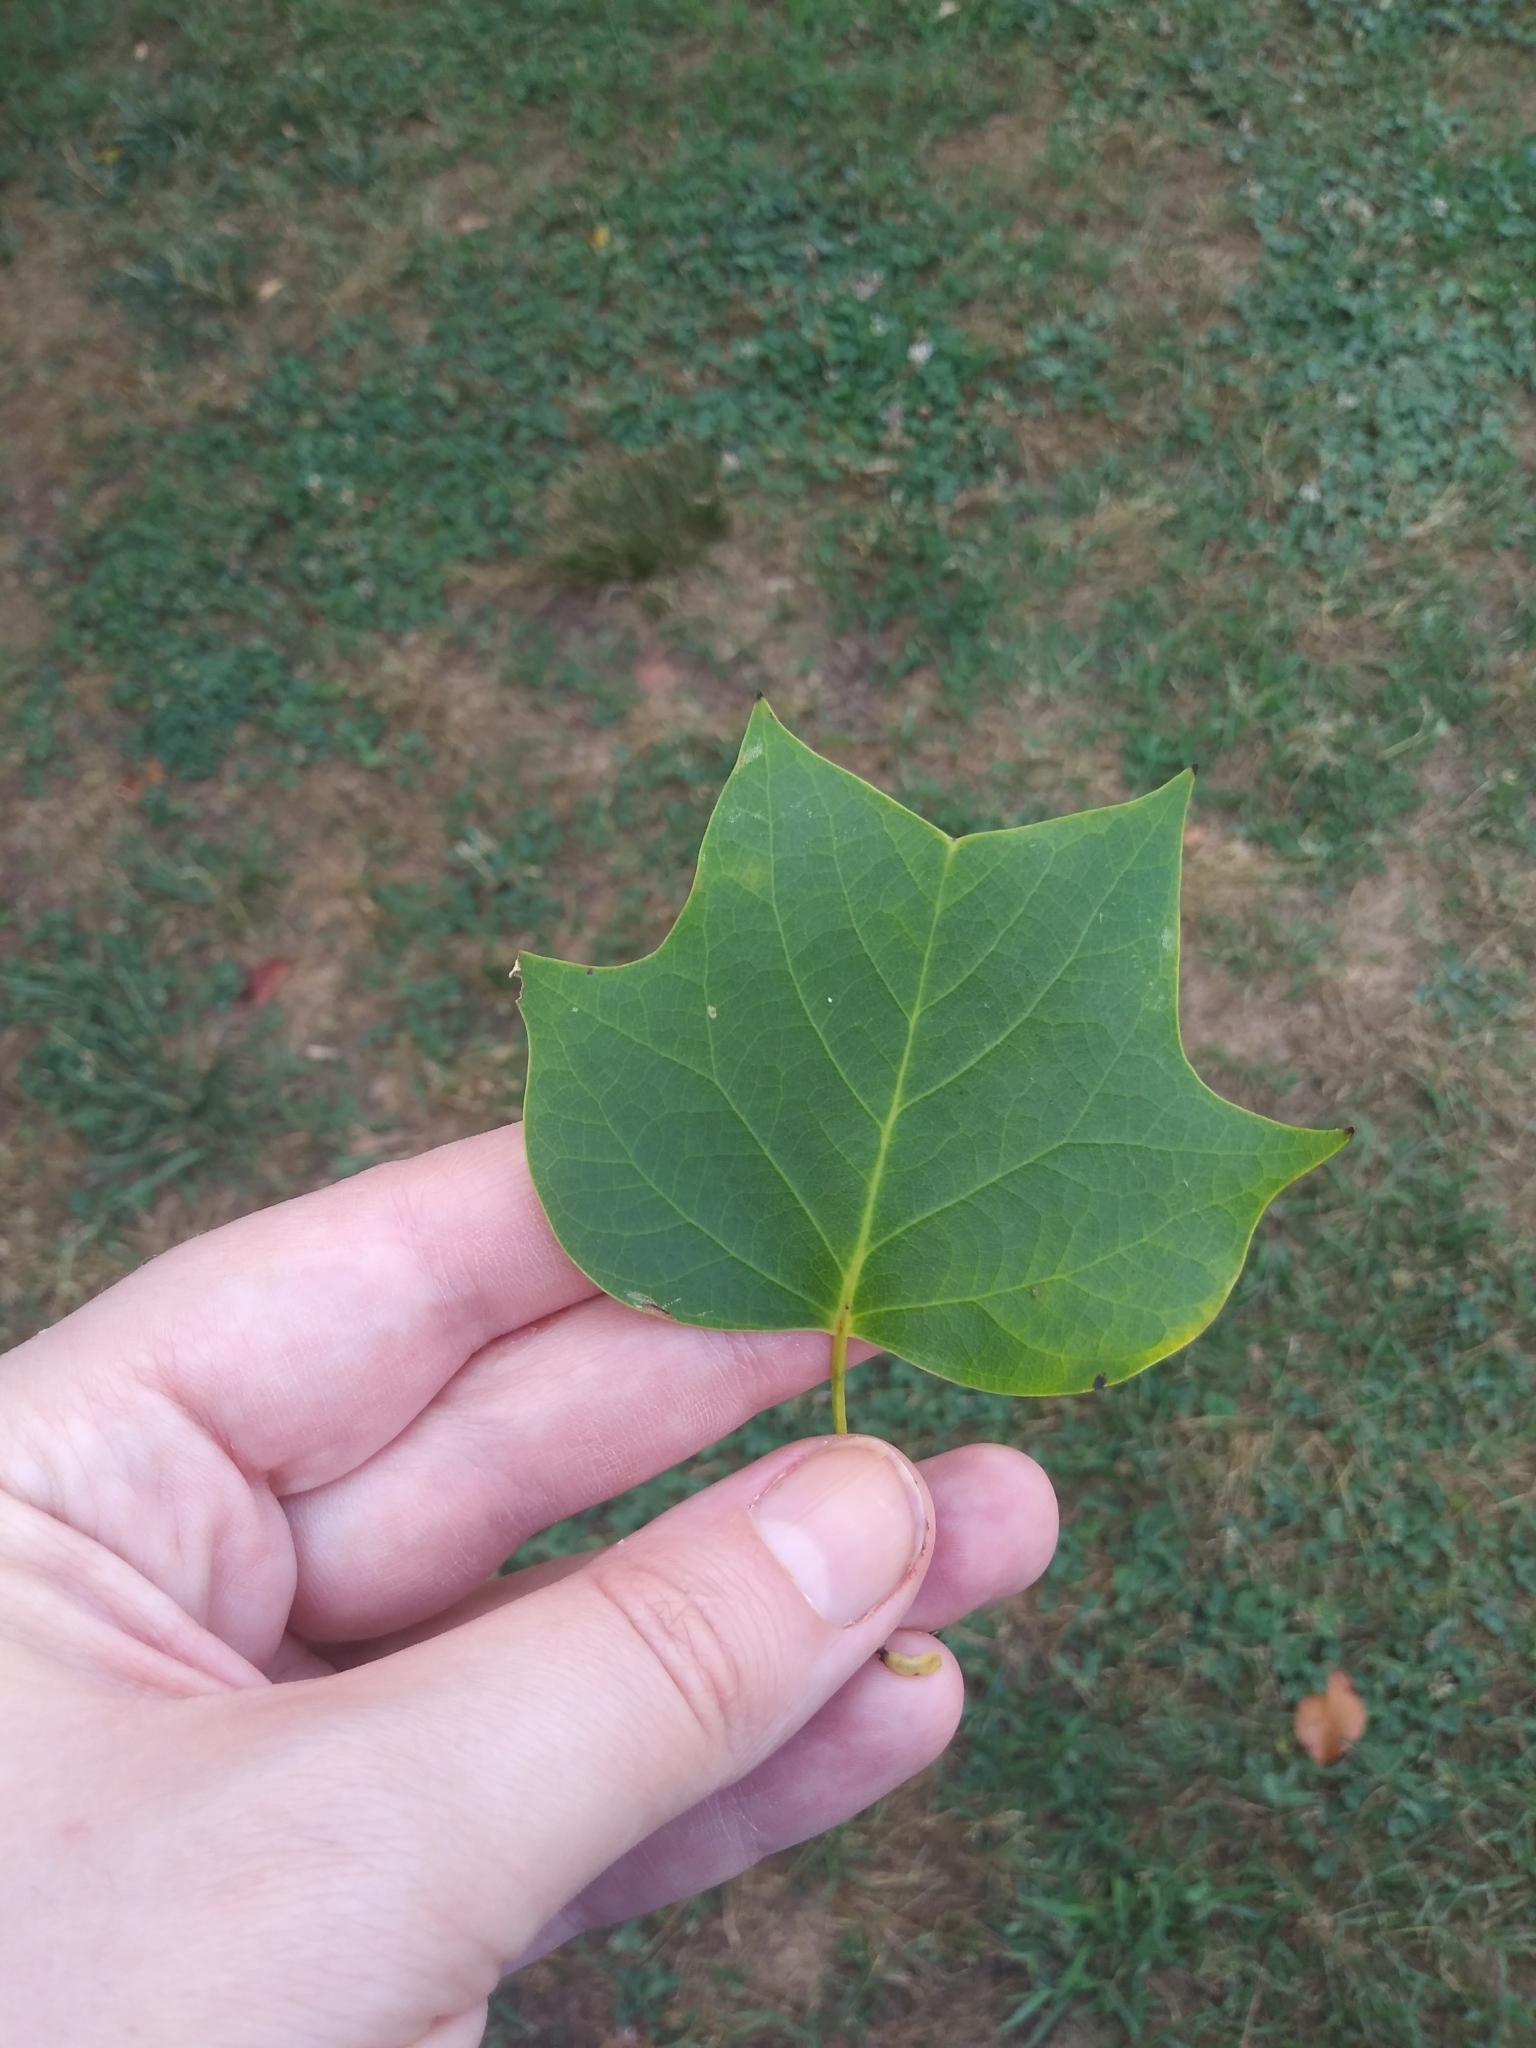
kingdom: Plantae
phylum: Tracheophyta
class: Magnoliopsida
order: Magnoliales
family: Magnoliaceae
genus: Liriodendron
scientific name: Liriodendron tulipifera
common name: Tulip tree
